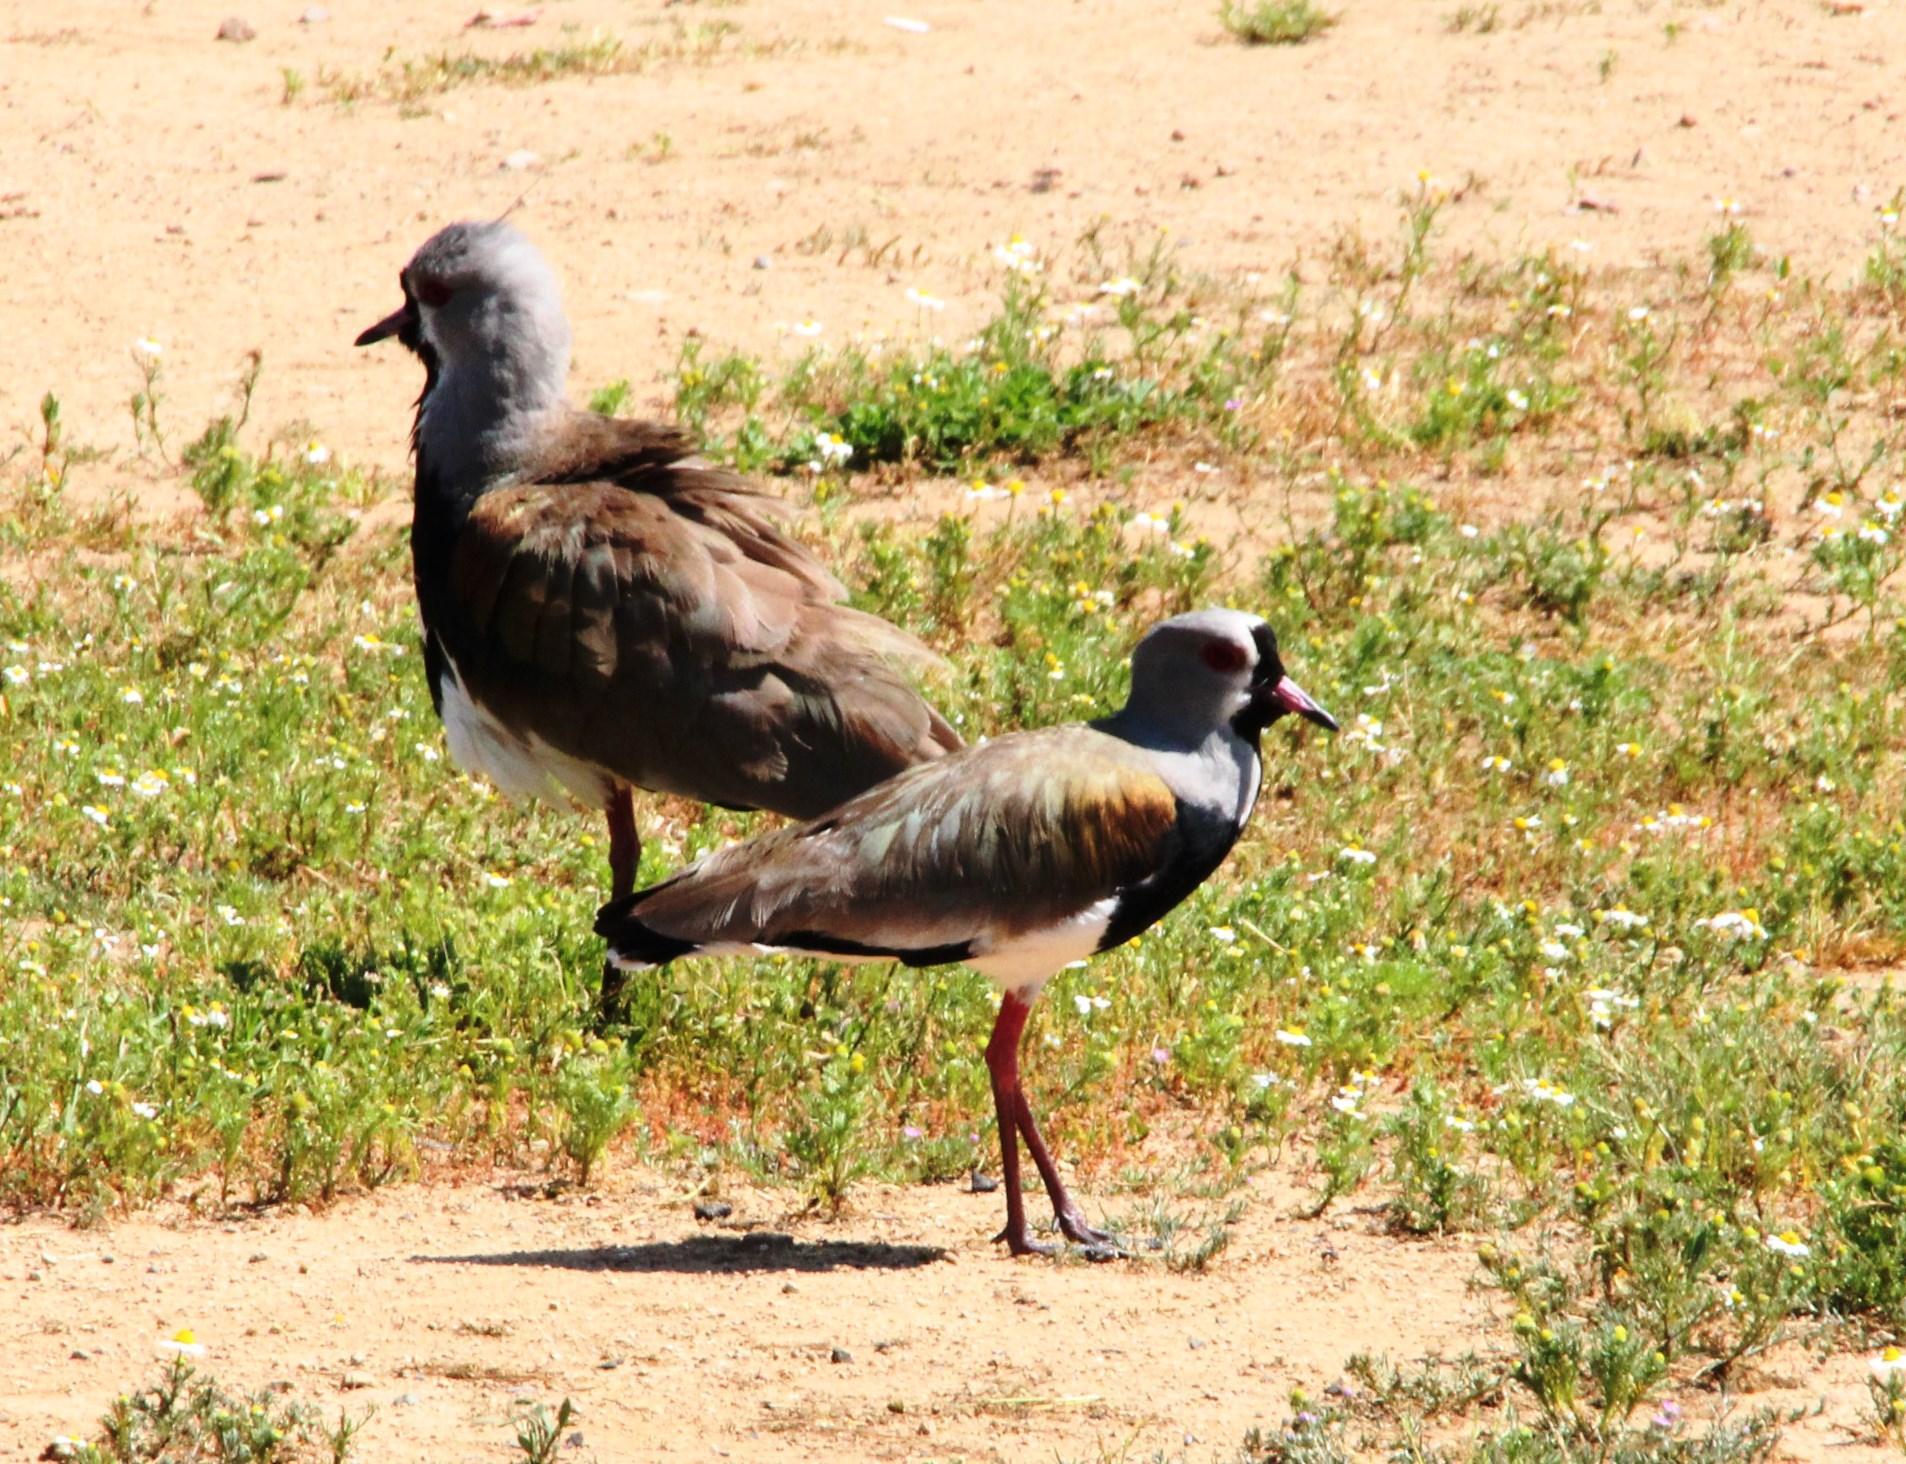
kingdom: Animalia
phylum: Chordata
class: Aves
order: Charadriiformes
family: Charadriidae
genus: Vanellus
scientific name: Vanellus chilensis
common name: Southern lapwing
